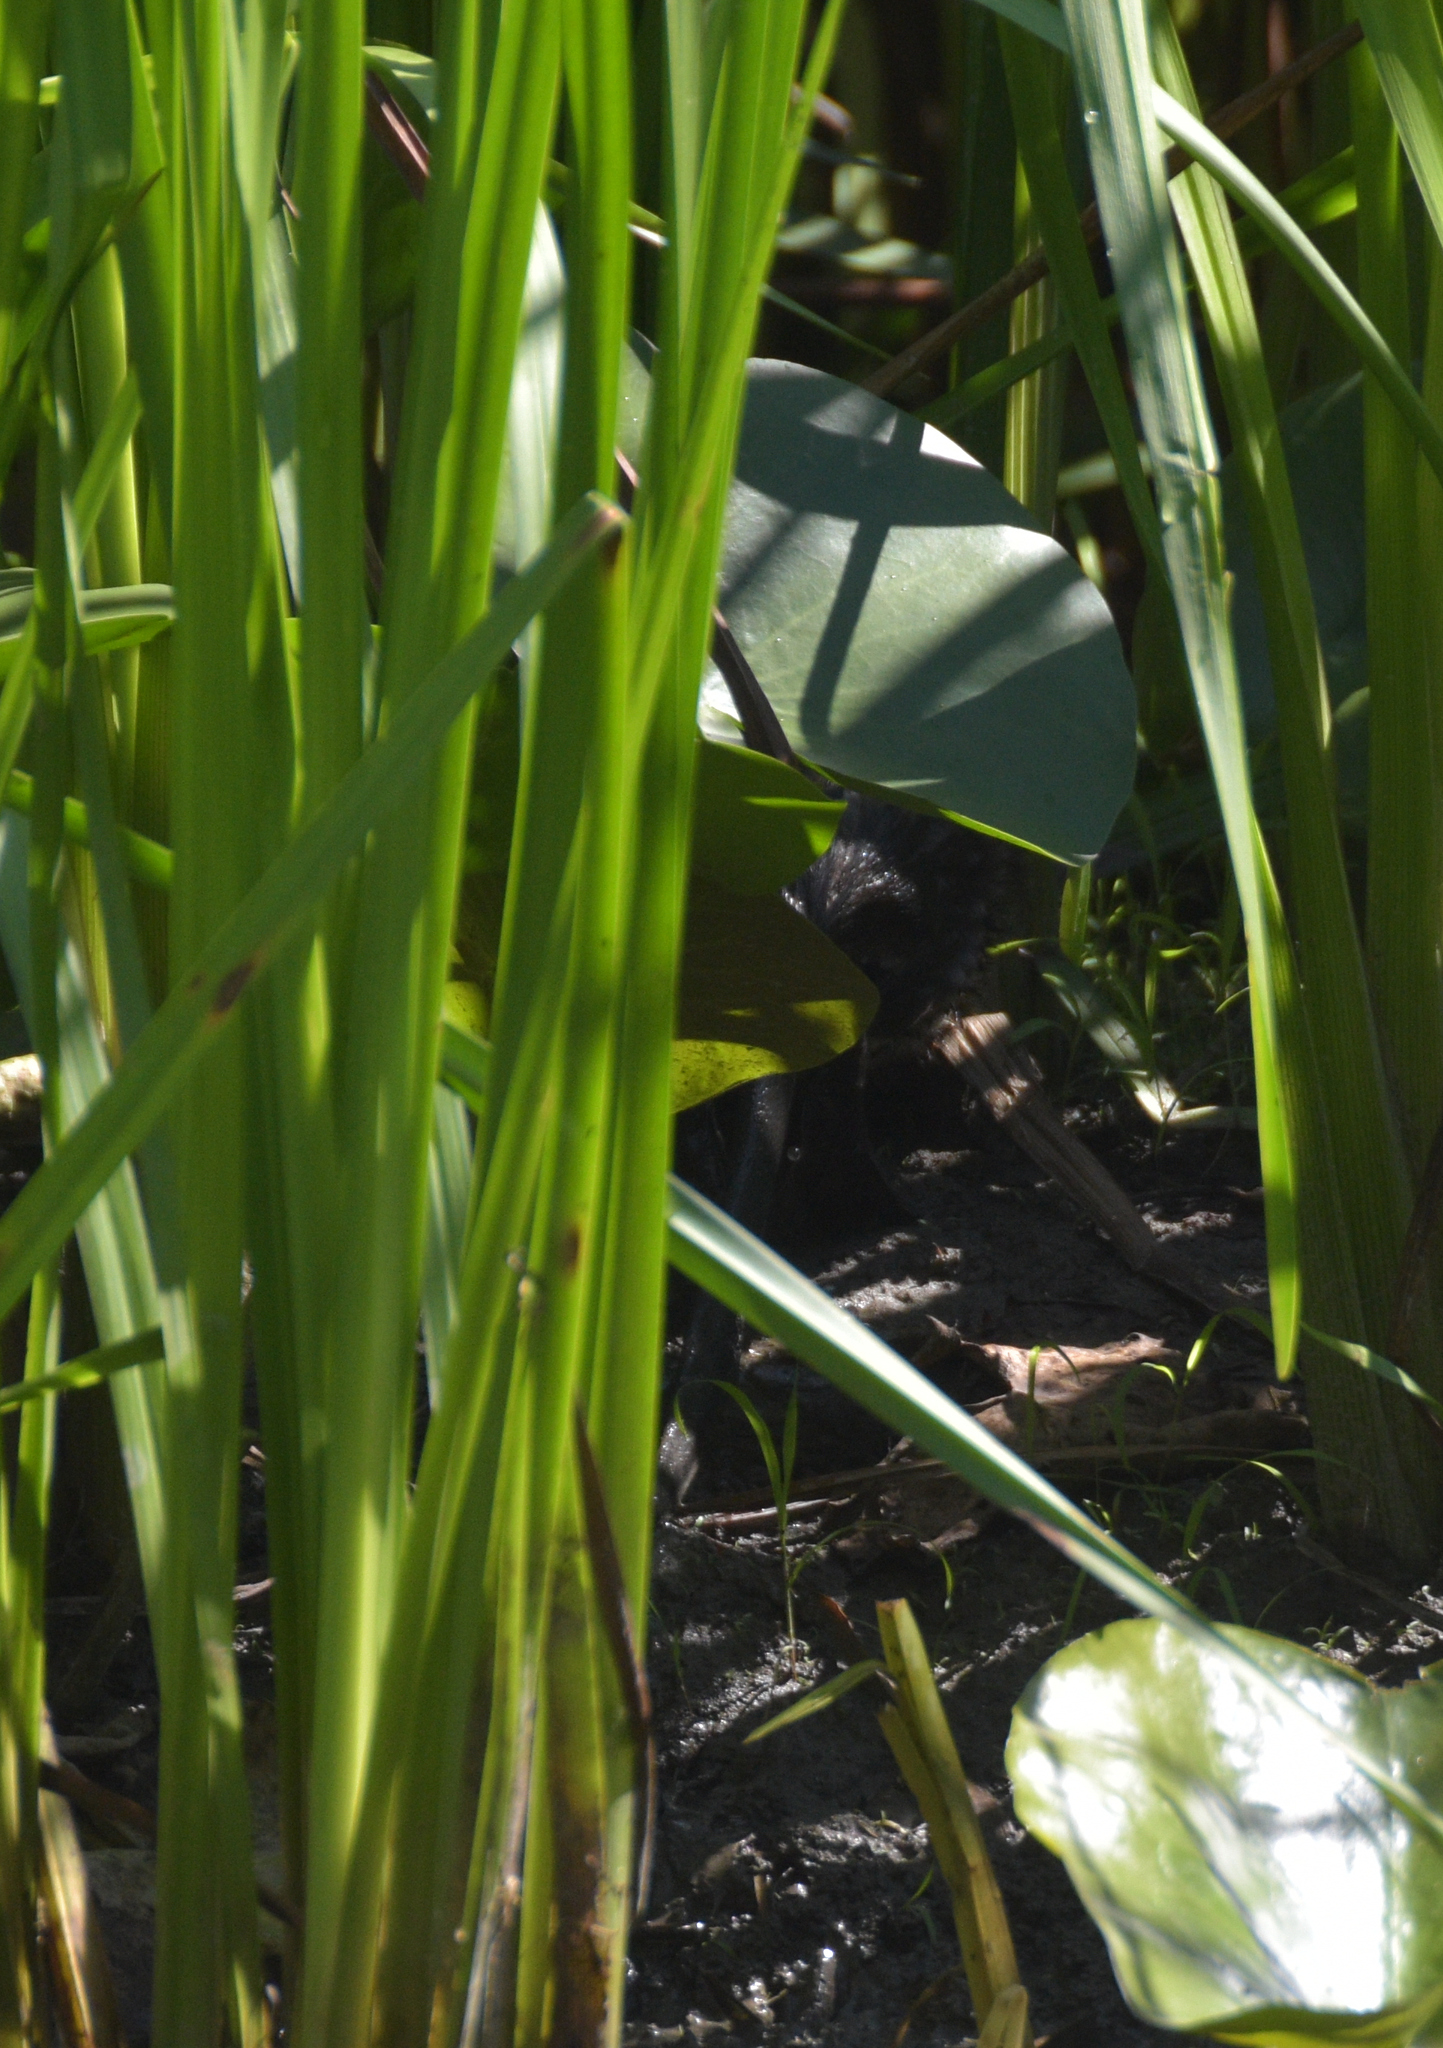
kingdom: Animalia
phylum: Chordata
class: Mammalia
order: Rodentia
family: Cricetidae
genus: Ondatra
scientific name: Ondatra zibethicus
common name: Muskrat
